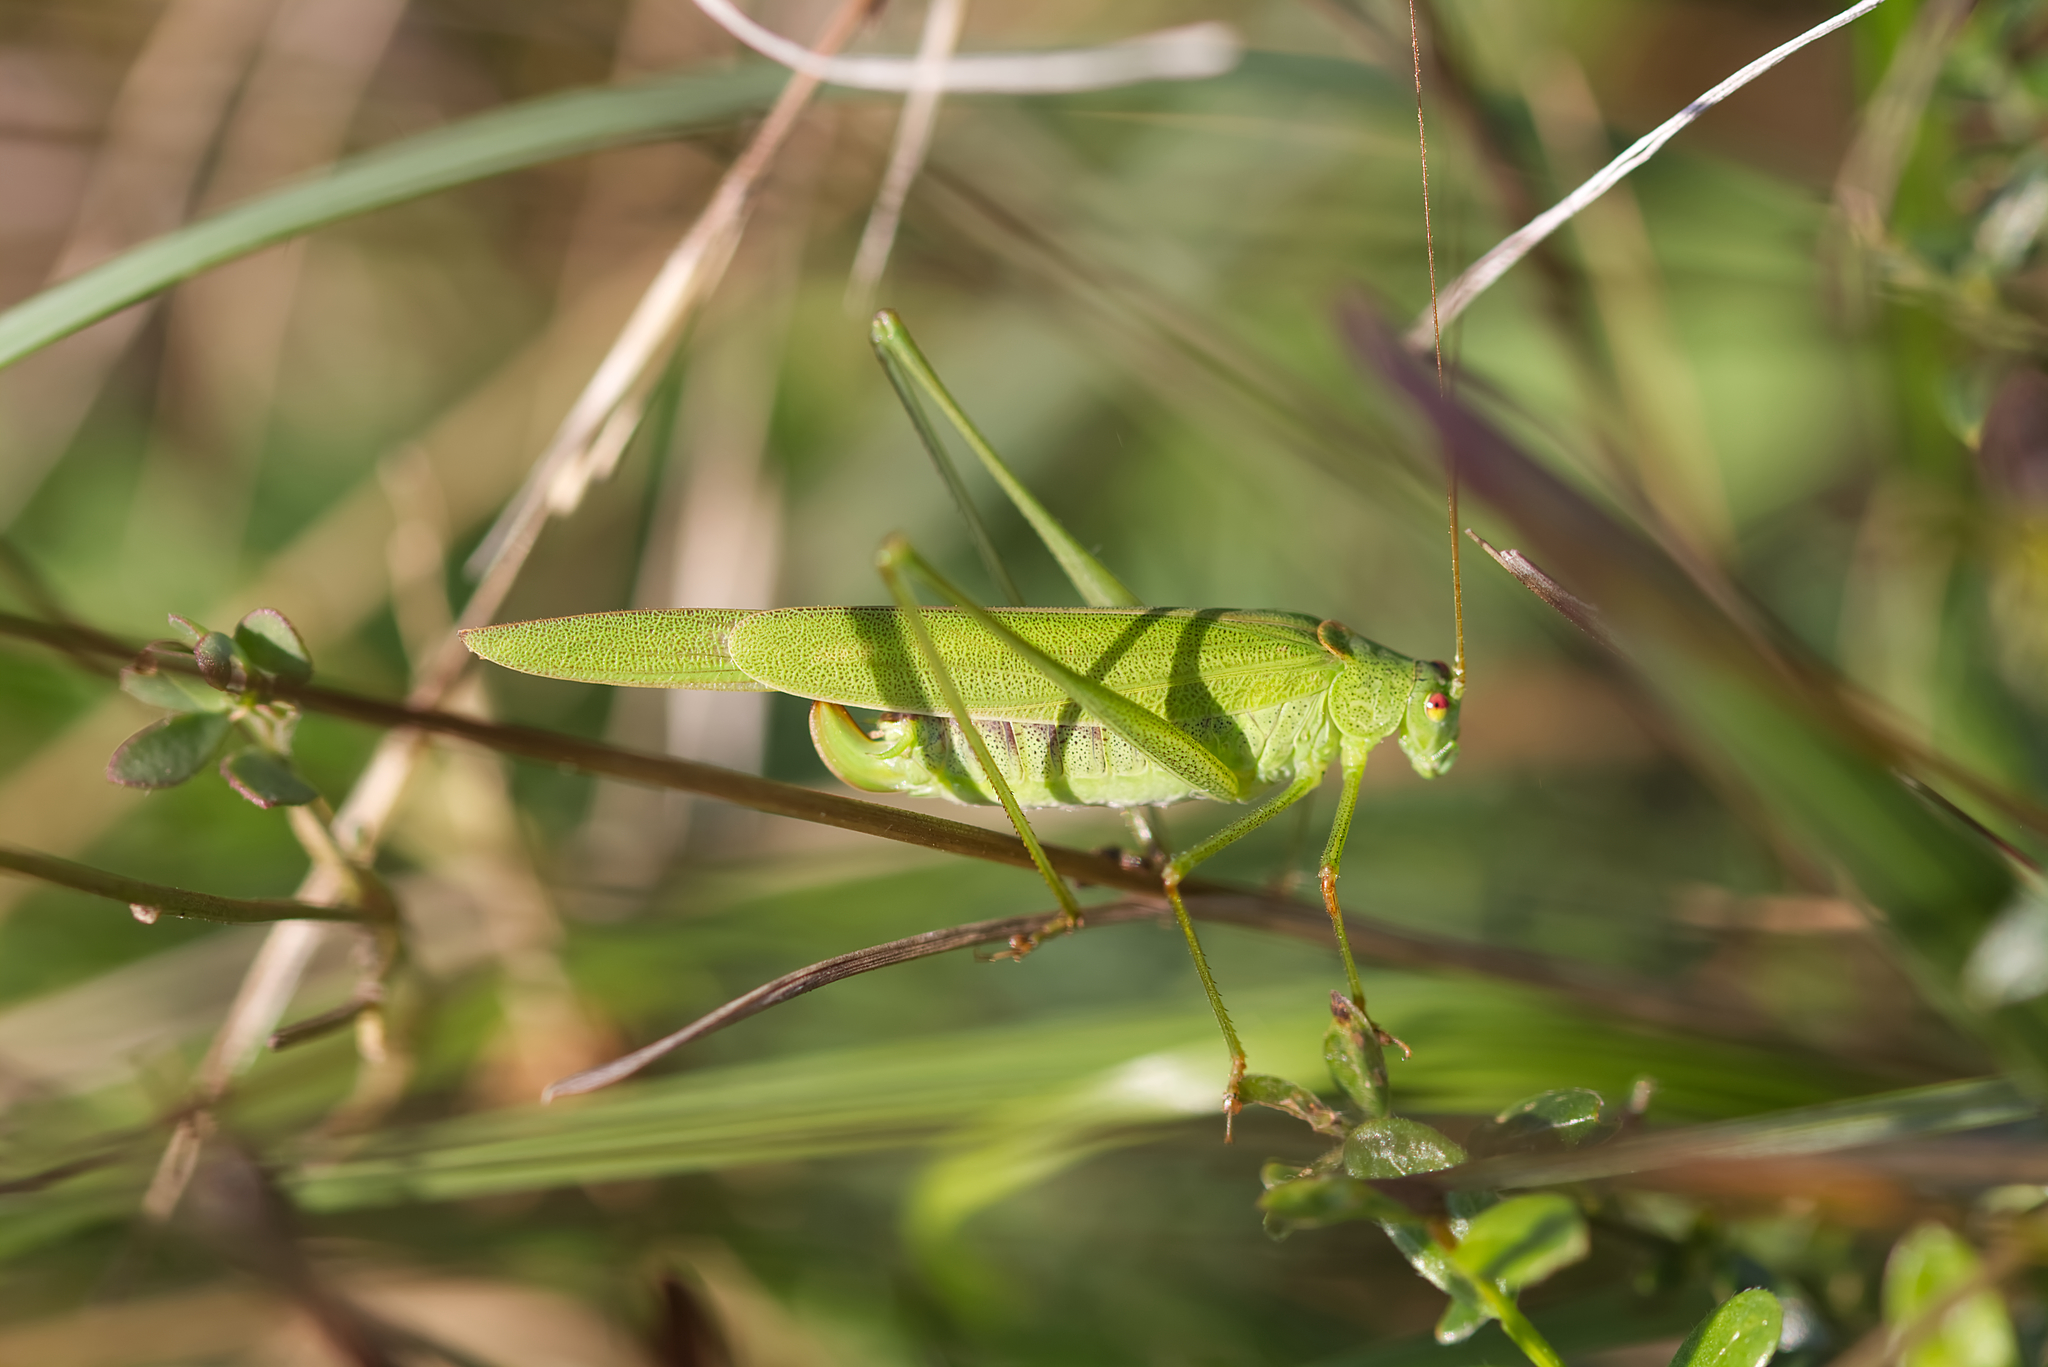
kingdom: Animalia
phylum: Arthropoda
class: Insecta
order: Orthoptera
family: Tettigoniidae
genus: Phaneroptera
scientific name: Phaneroptera falcata
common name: Sickle-bearing bush-cricket
